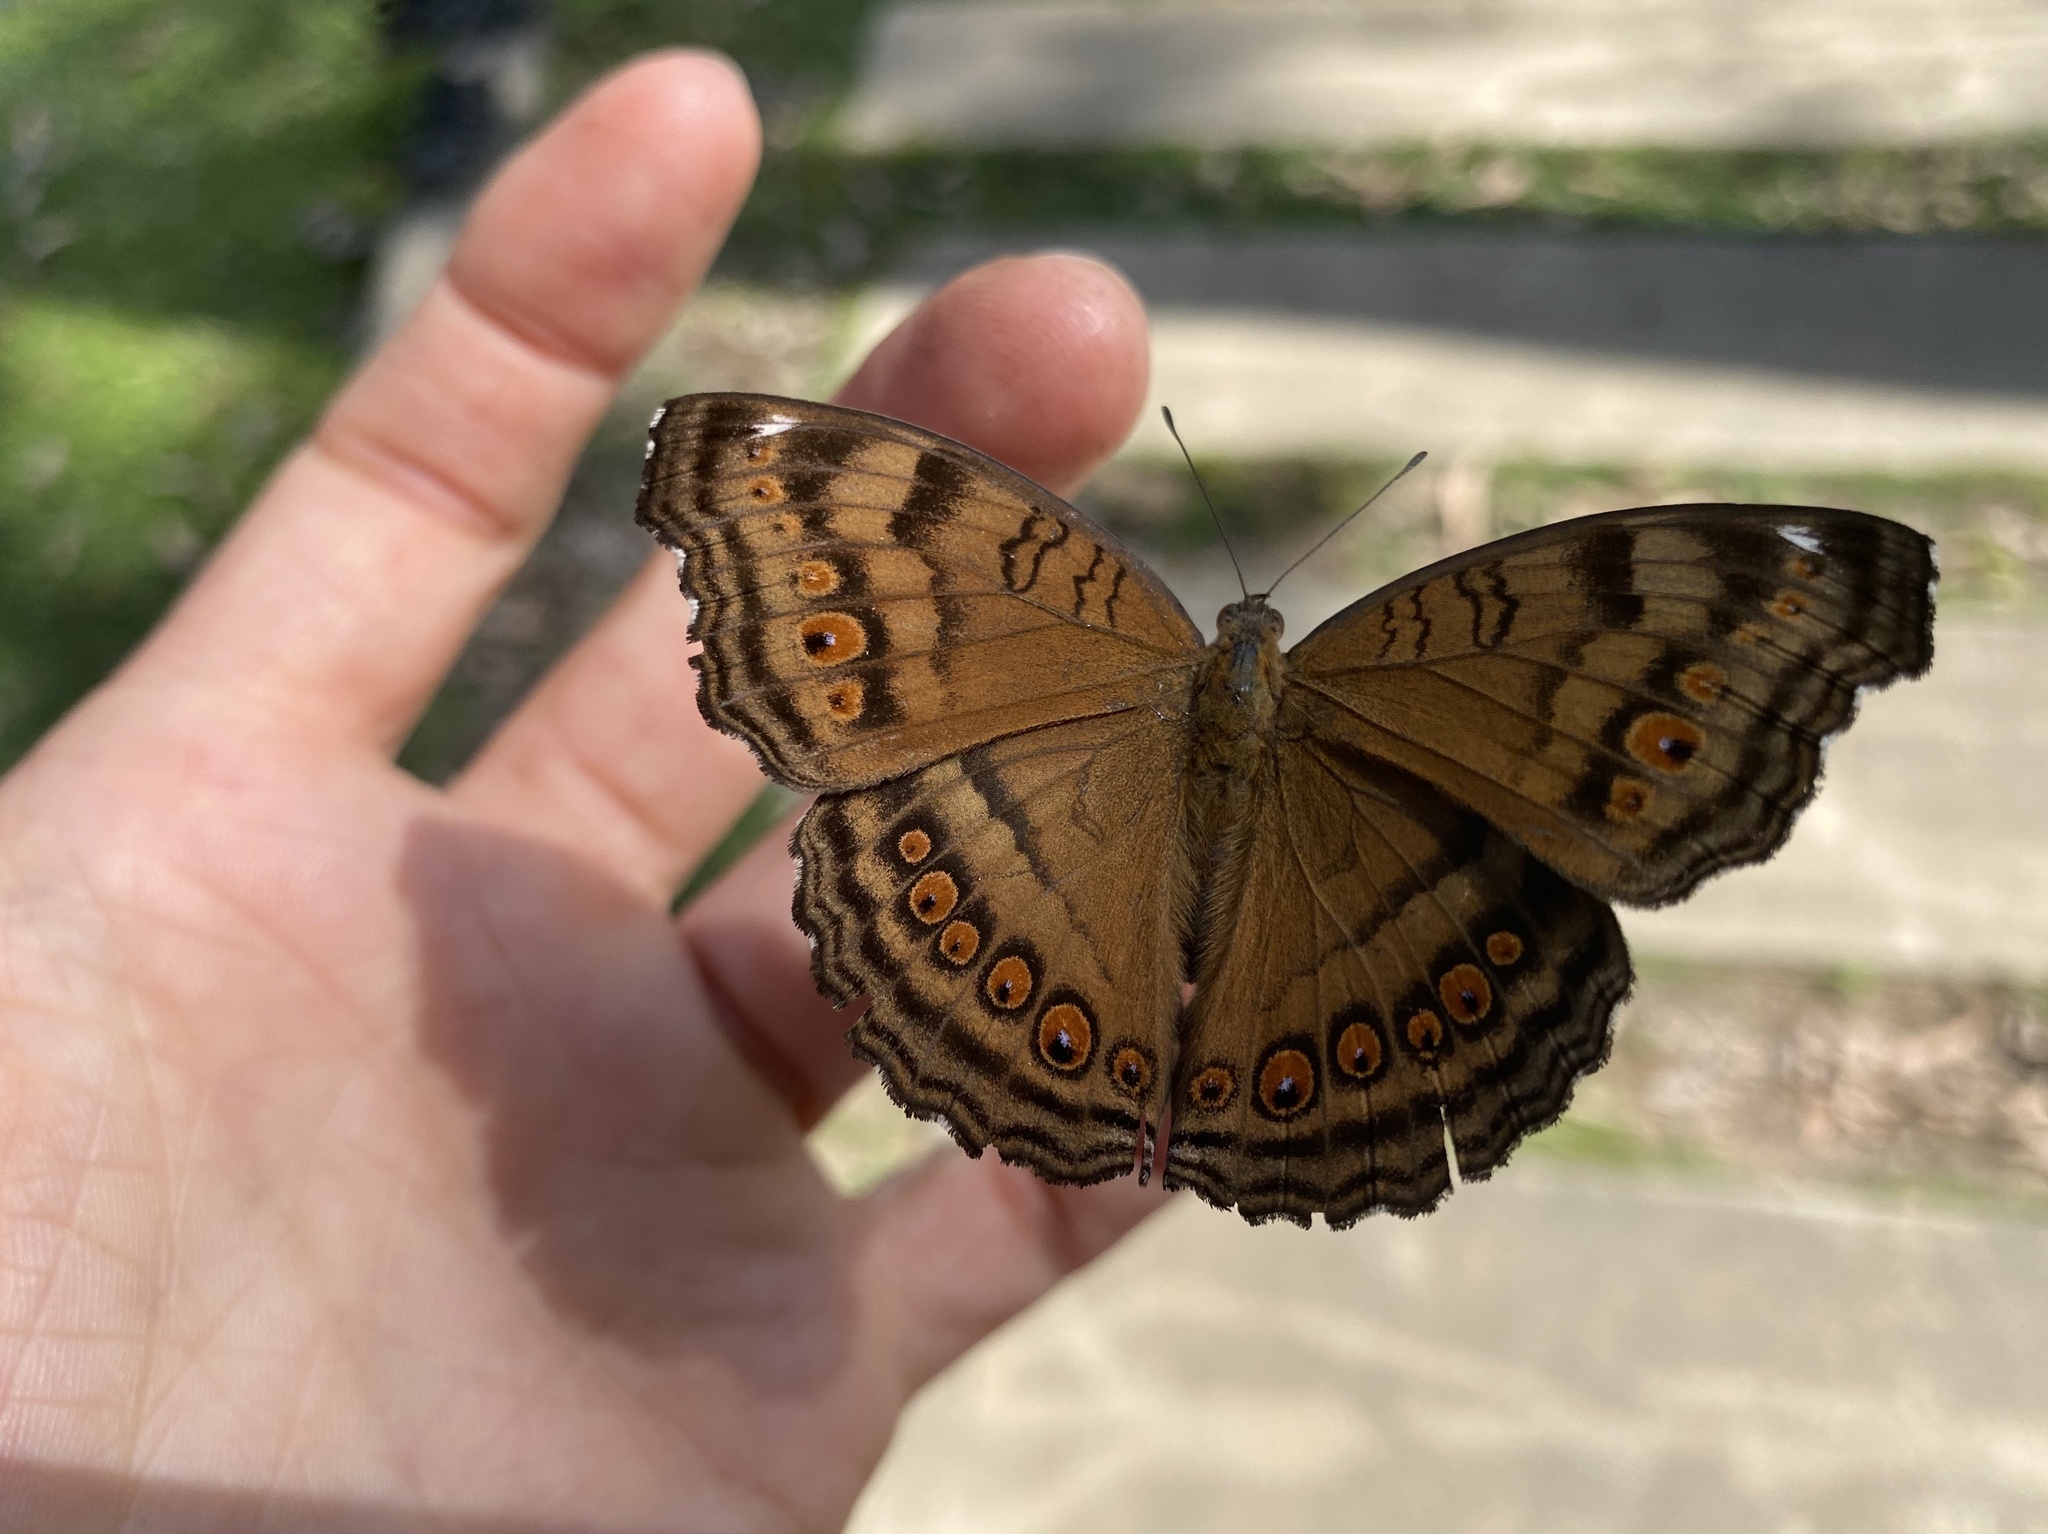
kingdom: Animalia
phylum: Arthropoda
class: Insecta
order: Lepidoptera
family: Nymphalidae
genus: Junonia
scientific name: Junonia hedonia
